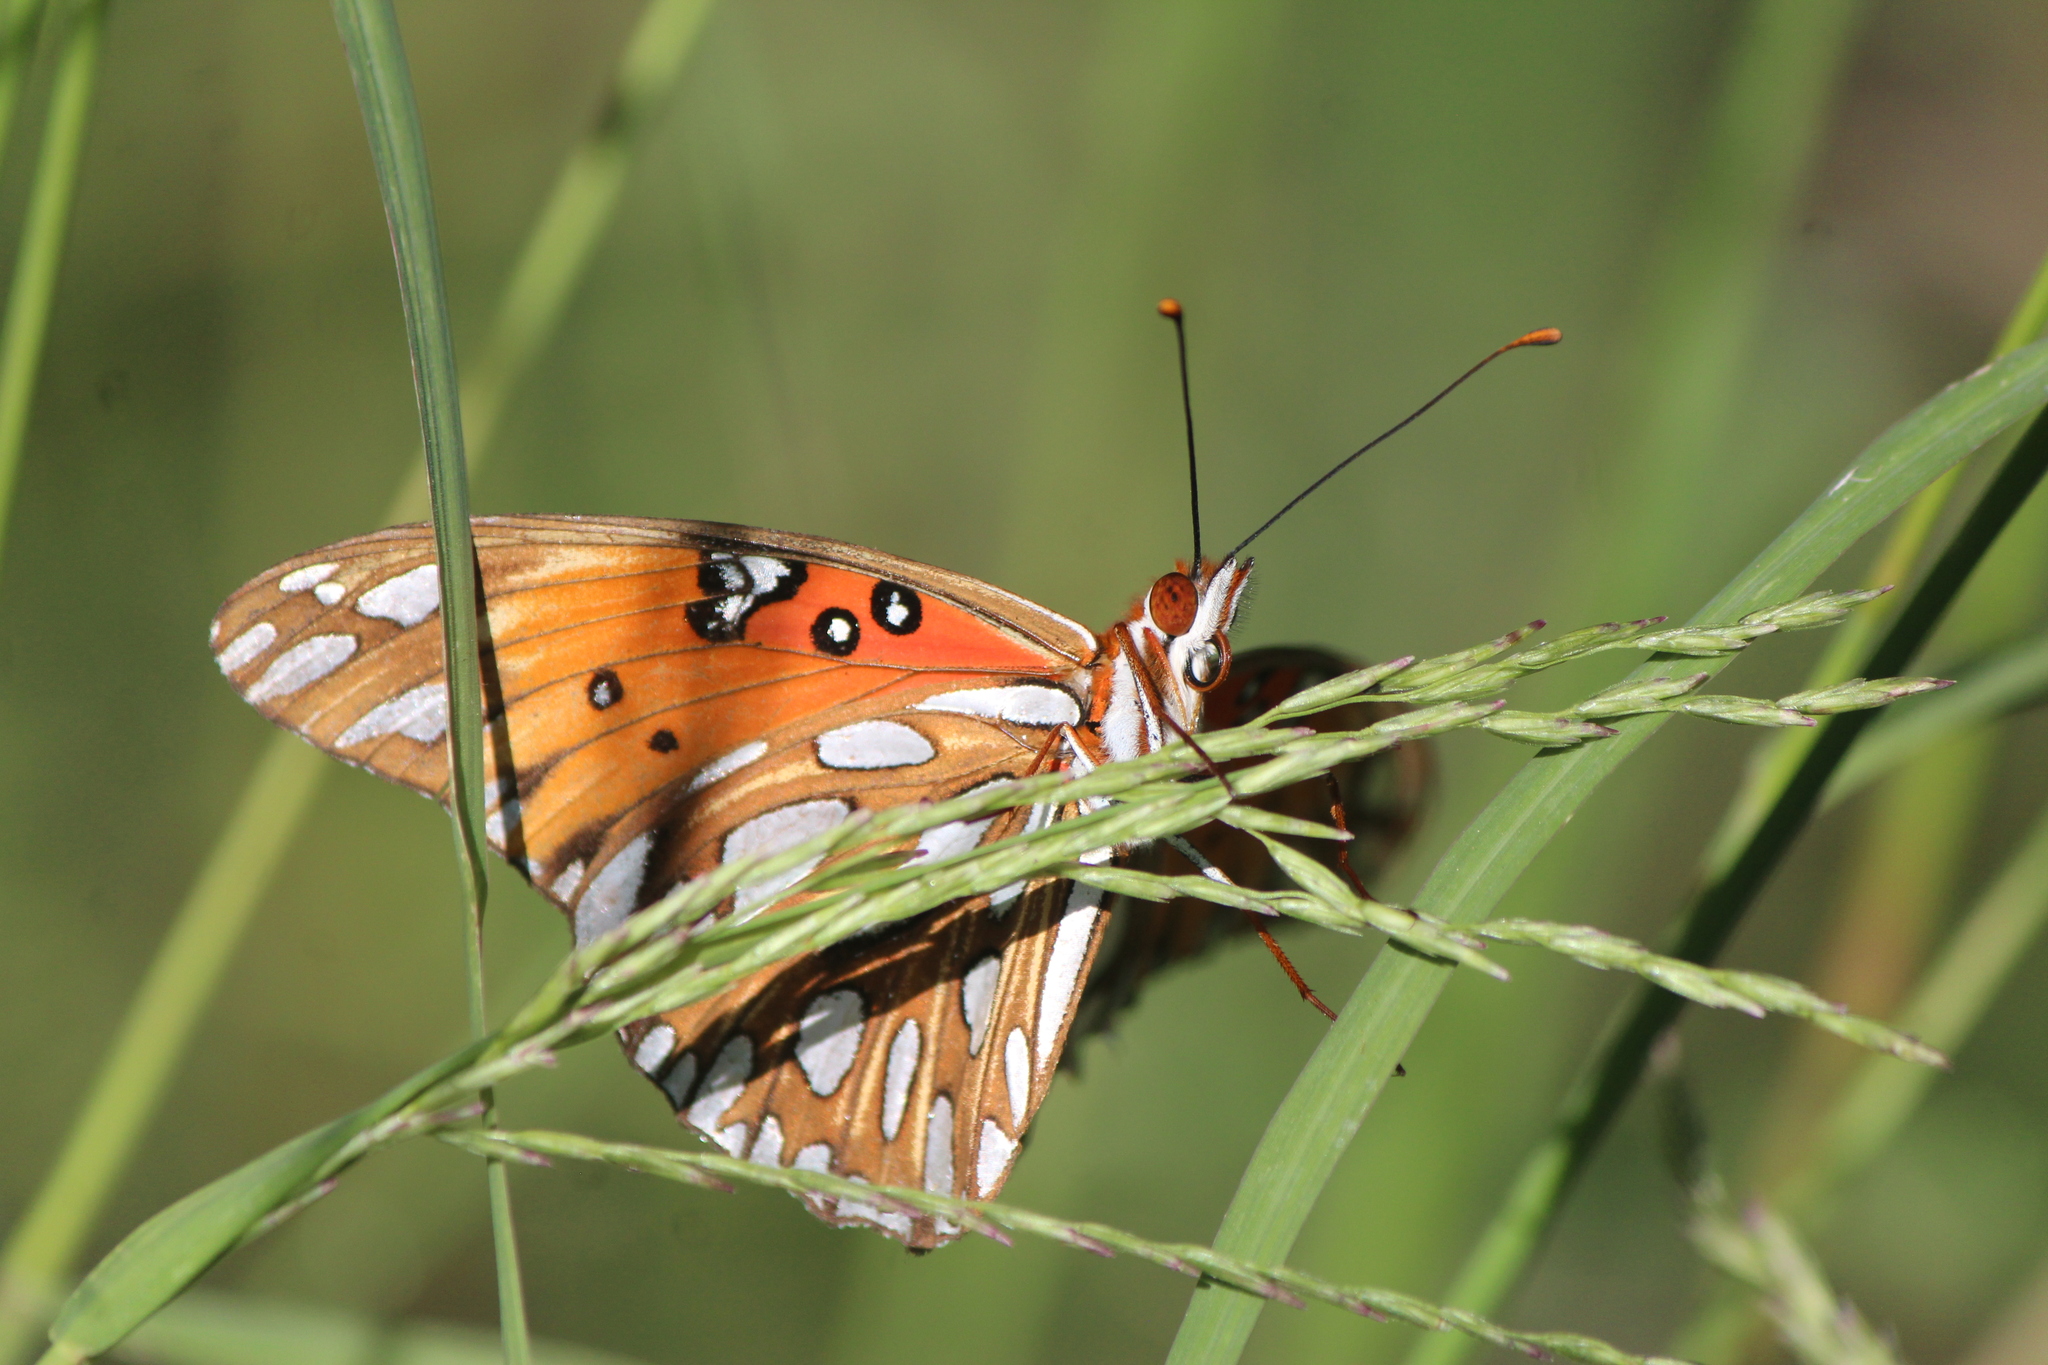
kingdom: Animalia
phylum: Arthropoda
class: Insecta
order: Lepidoptera
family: Nymphalidae
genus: Dione
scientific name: Dione vanillae
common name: Gulf fritillary
